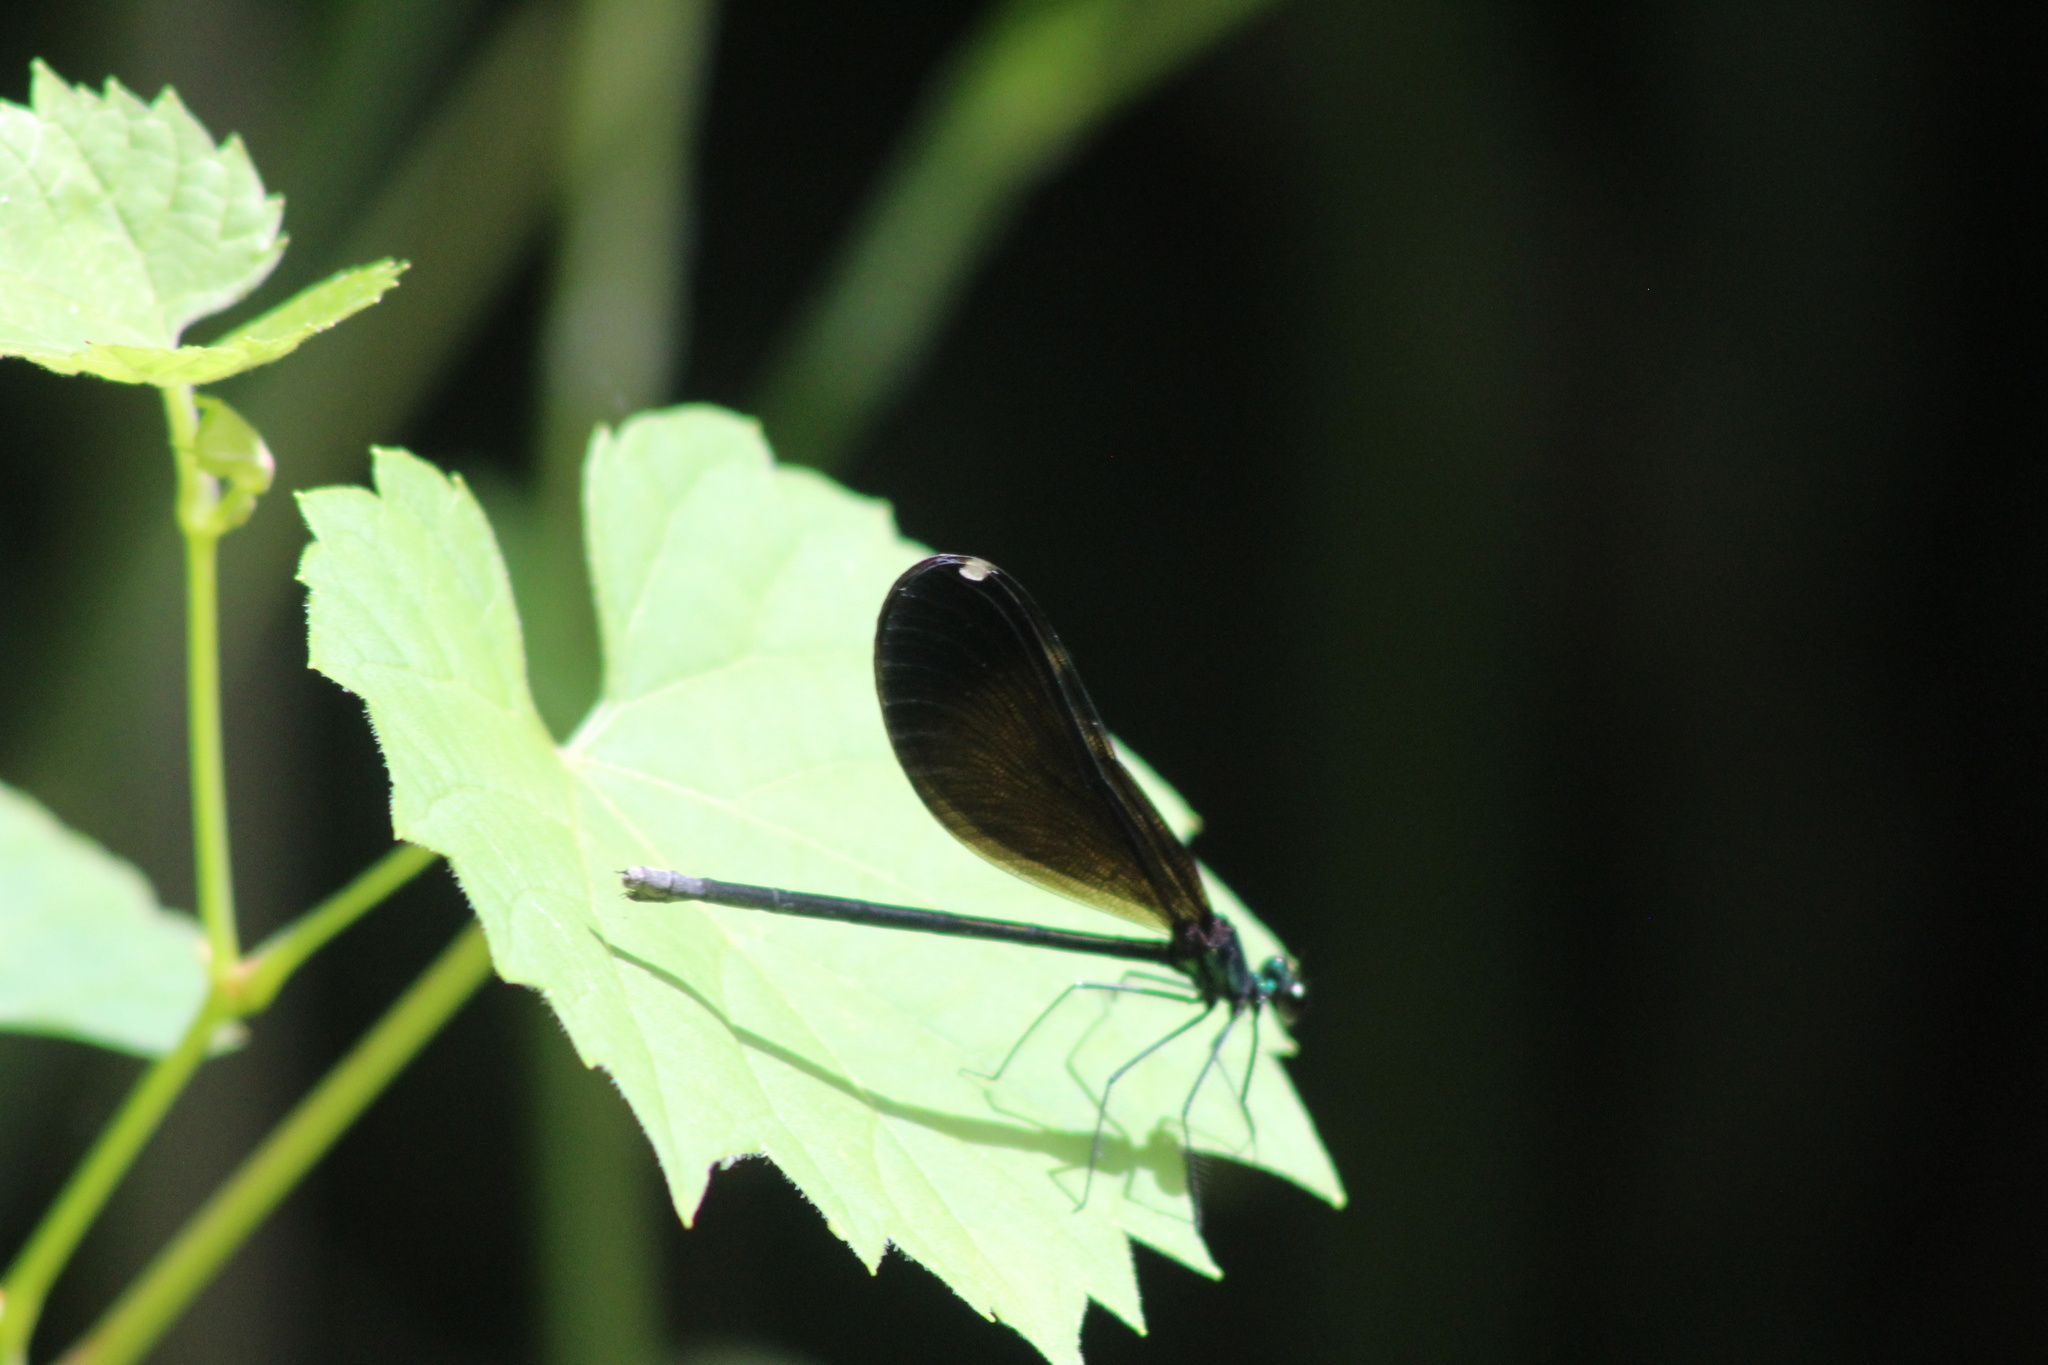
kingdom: Animalia
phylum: Arthropoda
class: Insecta
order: Odonata
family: Calopterygidae
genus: Calopteryx
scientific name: Calopteryx maculata
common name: Ebony jewelwing
